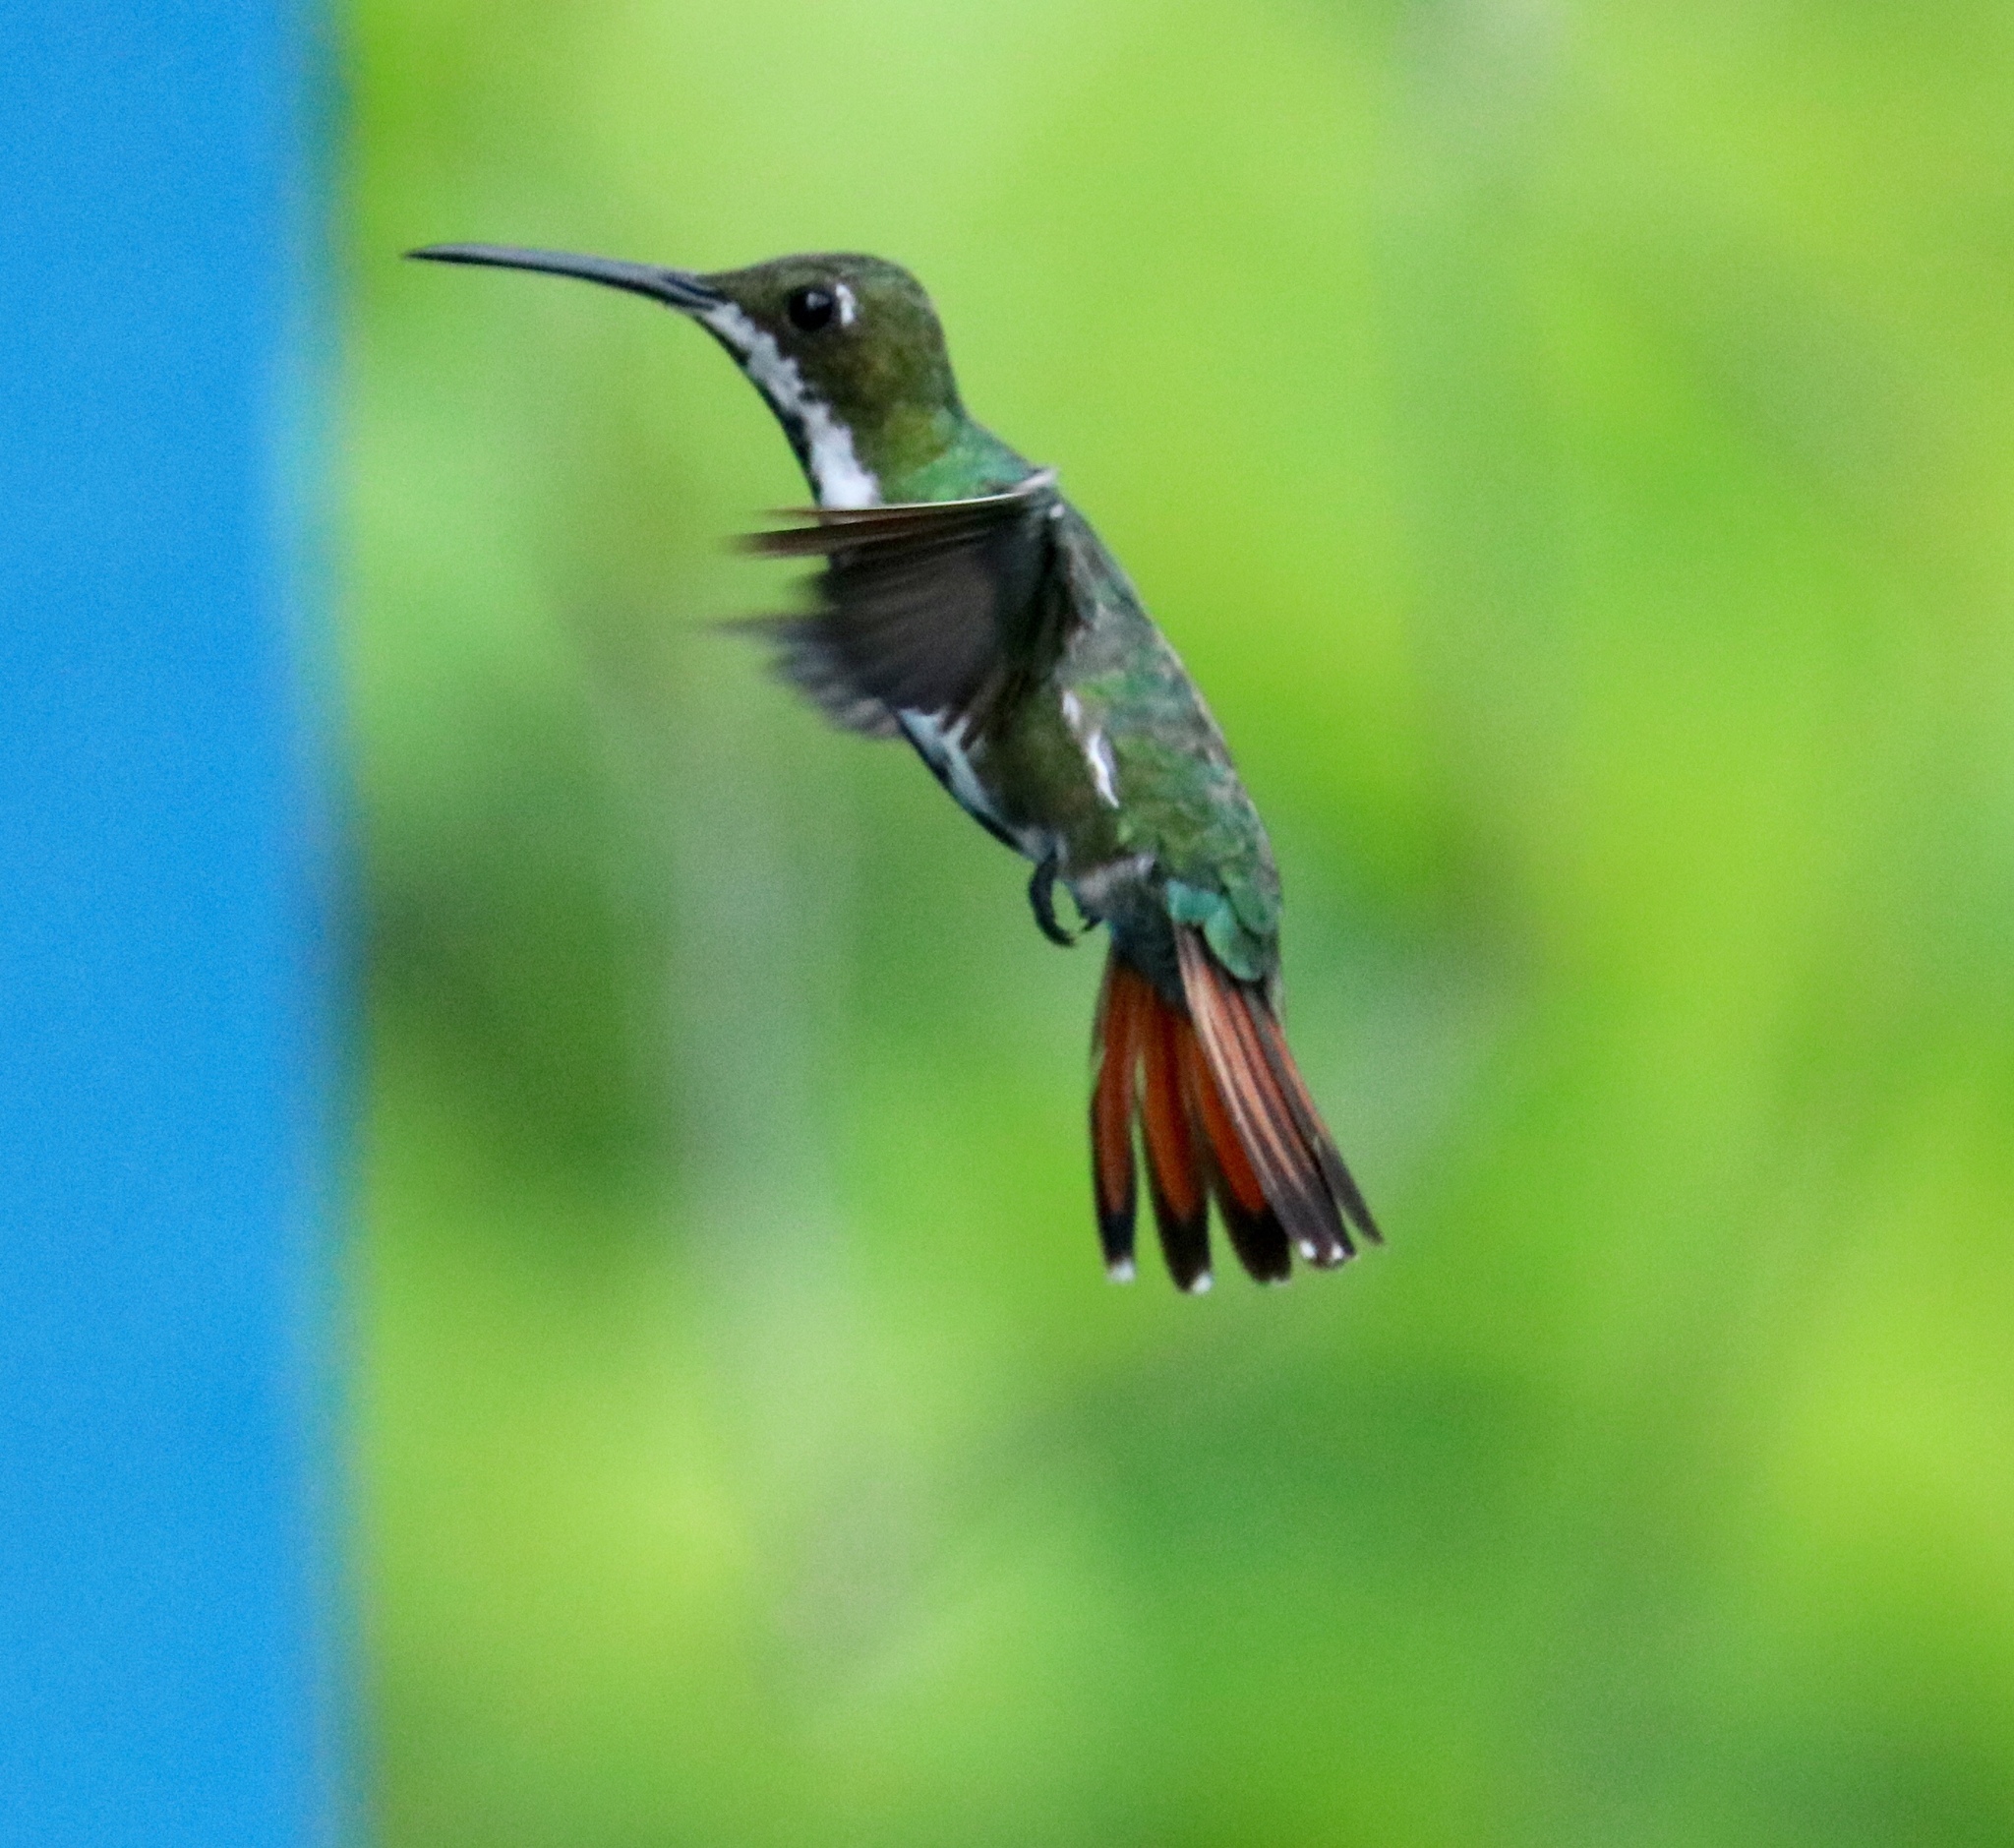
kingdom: Animalia
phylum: Chordata
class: Aves
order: Apodiformes
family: Trochilidae
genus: Anthracothorax
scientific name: Anthracothorax nigricollis
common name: Black-throated mango
